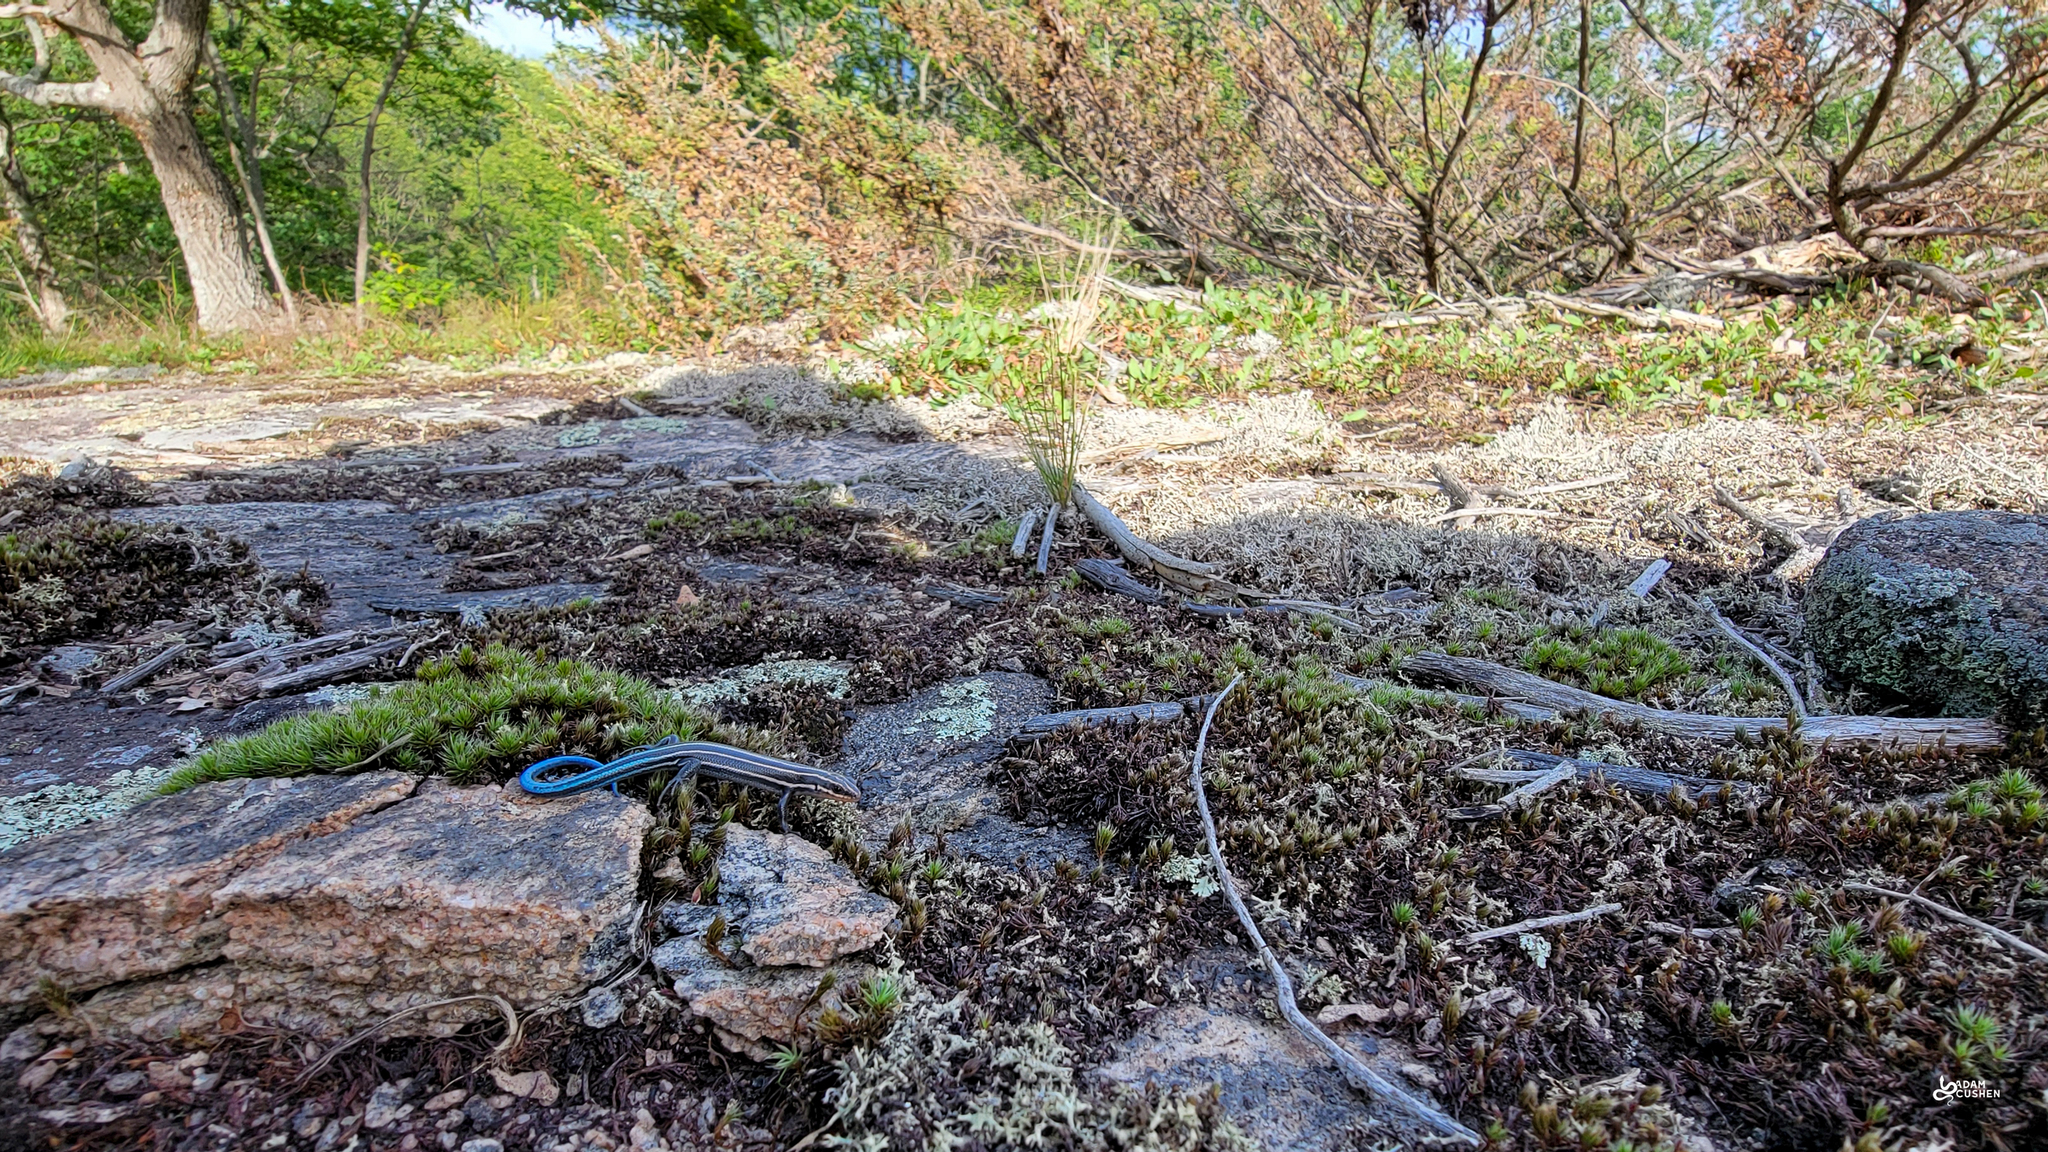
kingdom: Animalia
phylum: Chordata
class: Squamata
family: Scincidae
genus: Plestiodon
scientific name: Plestiodon fasciatus
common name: Five-lined skink
